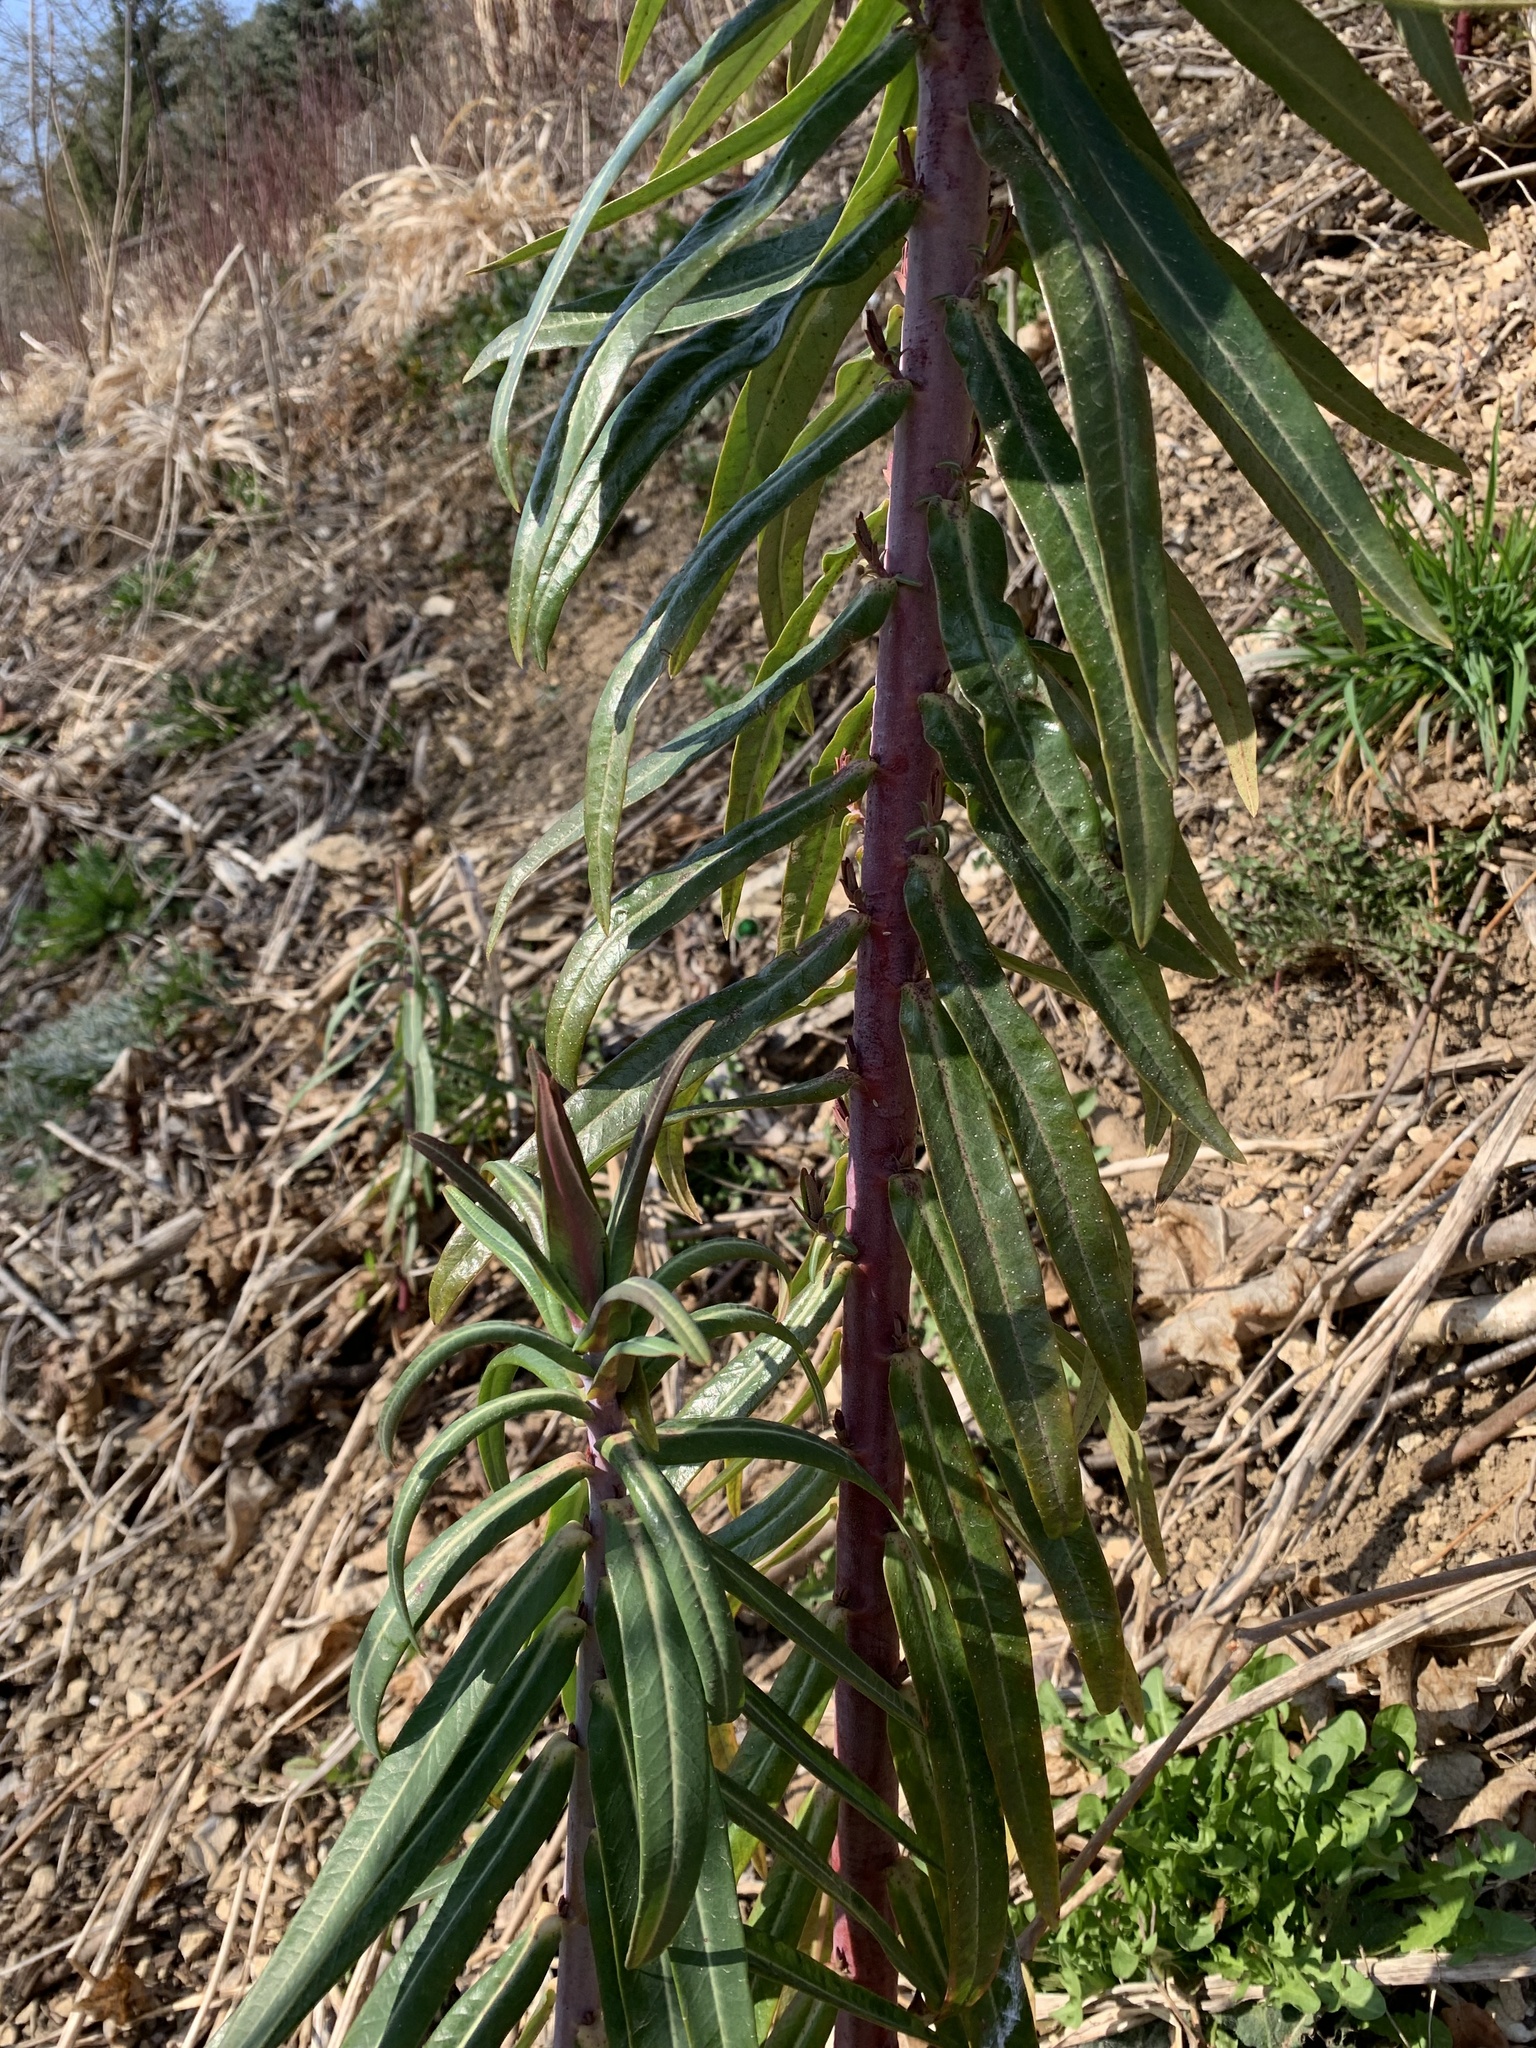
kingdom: Plantae
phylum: Tracheophyta
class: Magnoliopsida
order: Malpighiales
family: Euphorbiaceae
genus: Euphorbia
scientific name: Euphorbia lathyris
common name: Caper spurge
